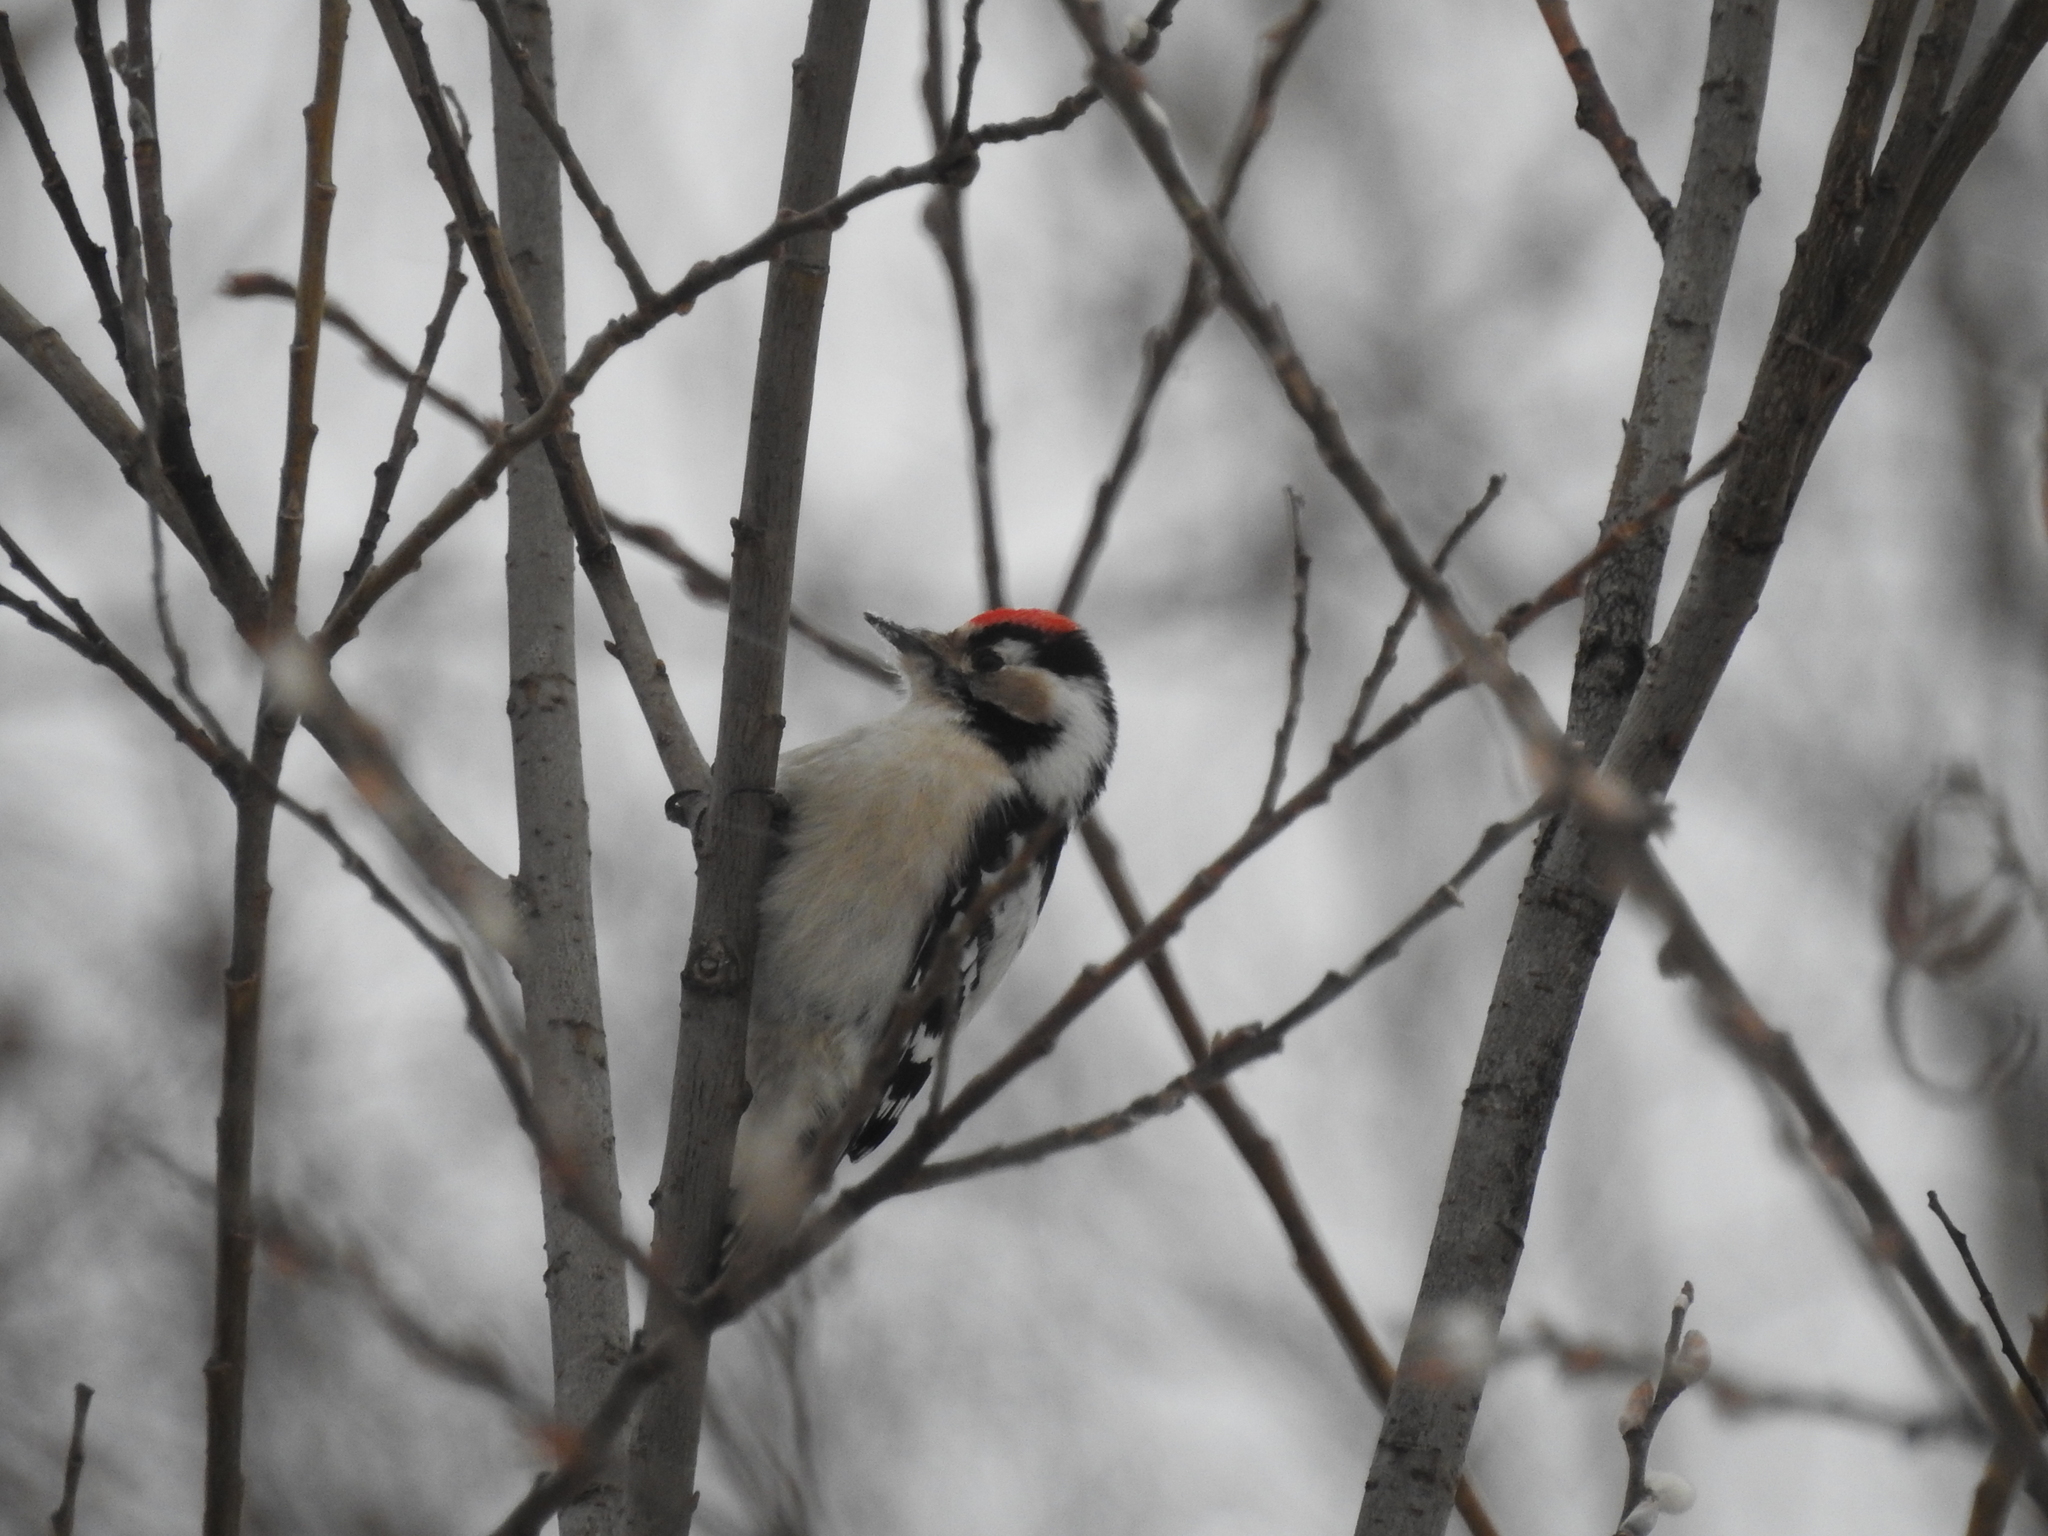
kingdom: Animalia
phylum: Chordata
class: Aves
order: Piciformes
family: Picidae
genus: Dryobates
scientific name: Dryobates minor
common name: Lesser spotted woodpecker
